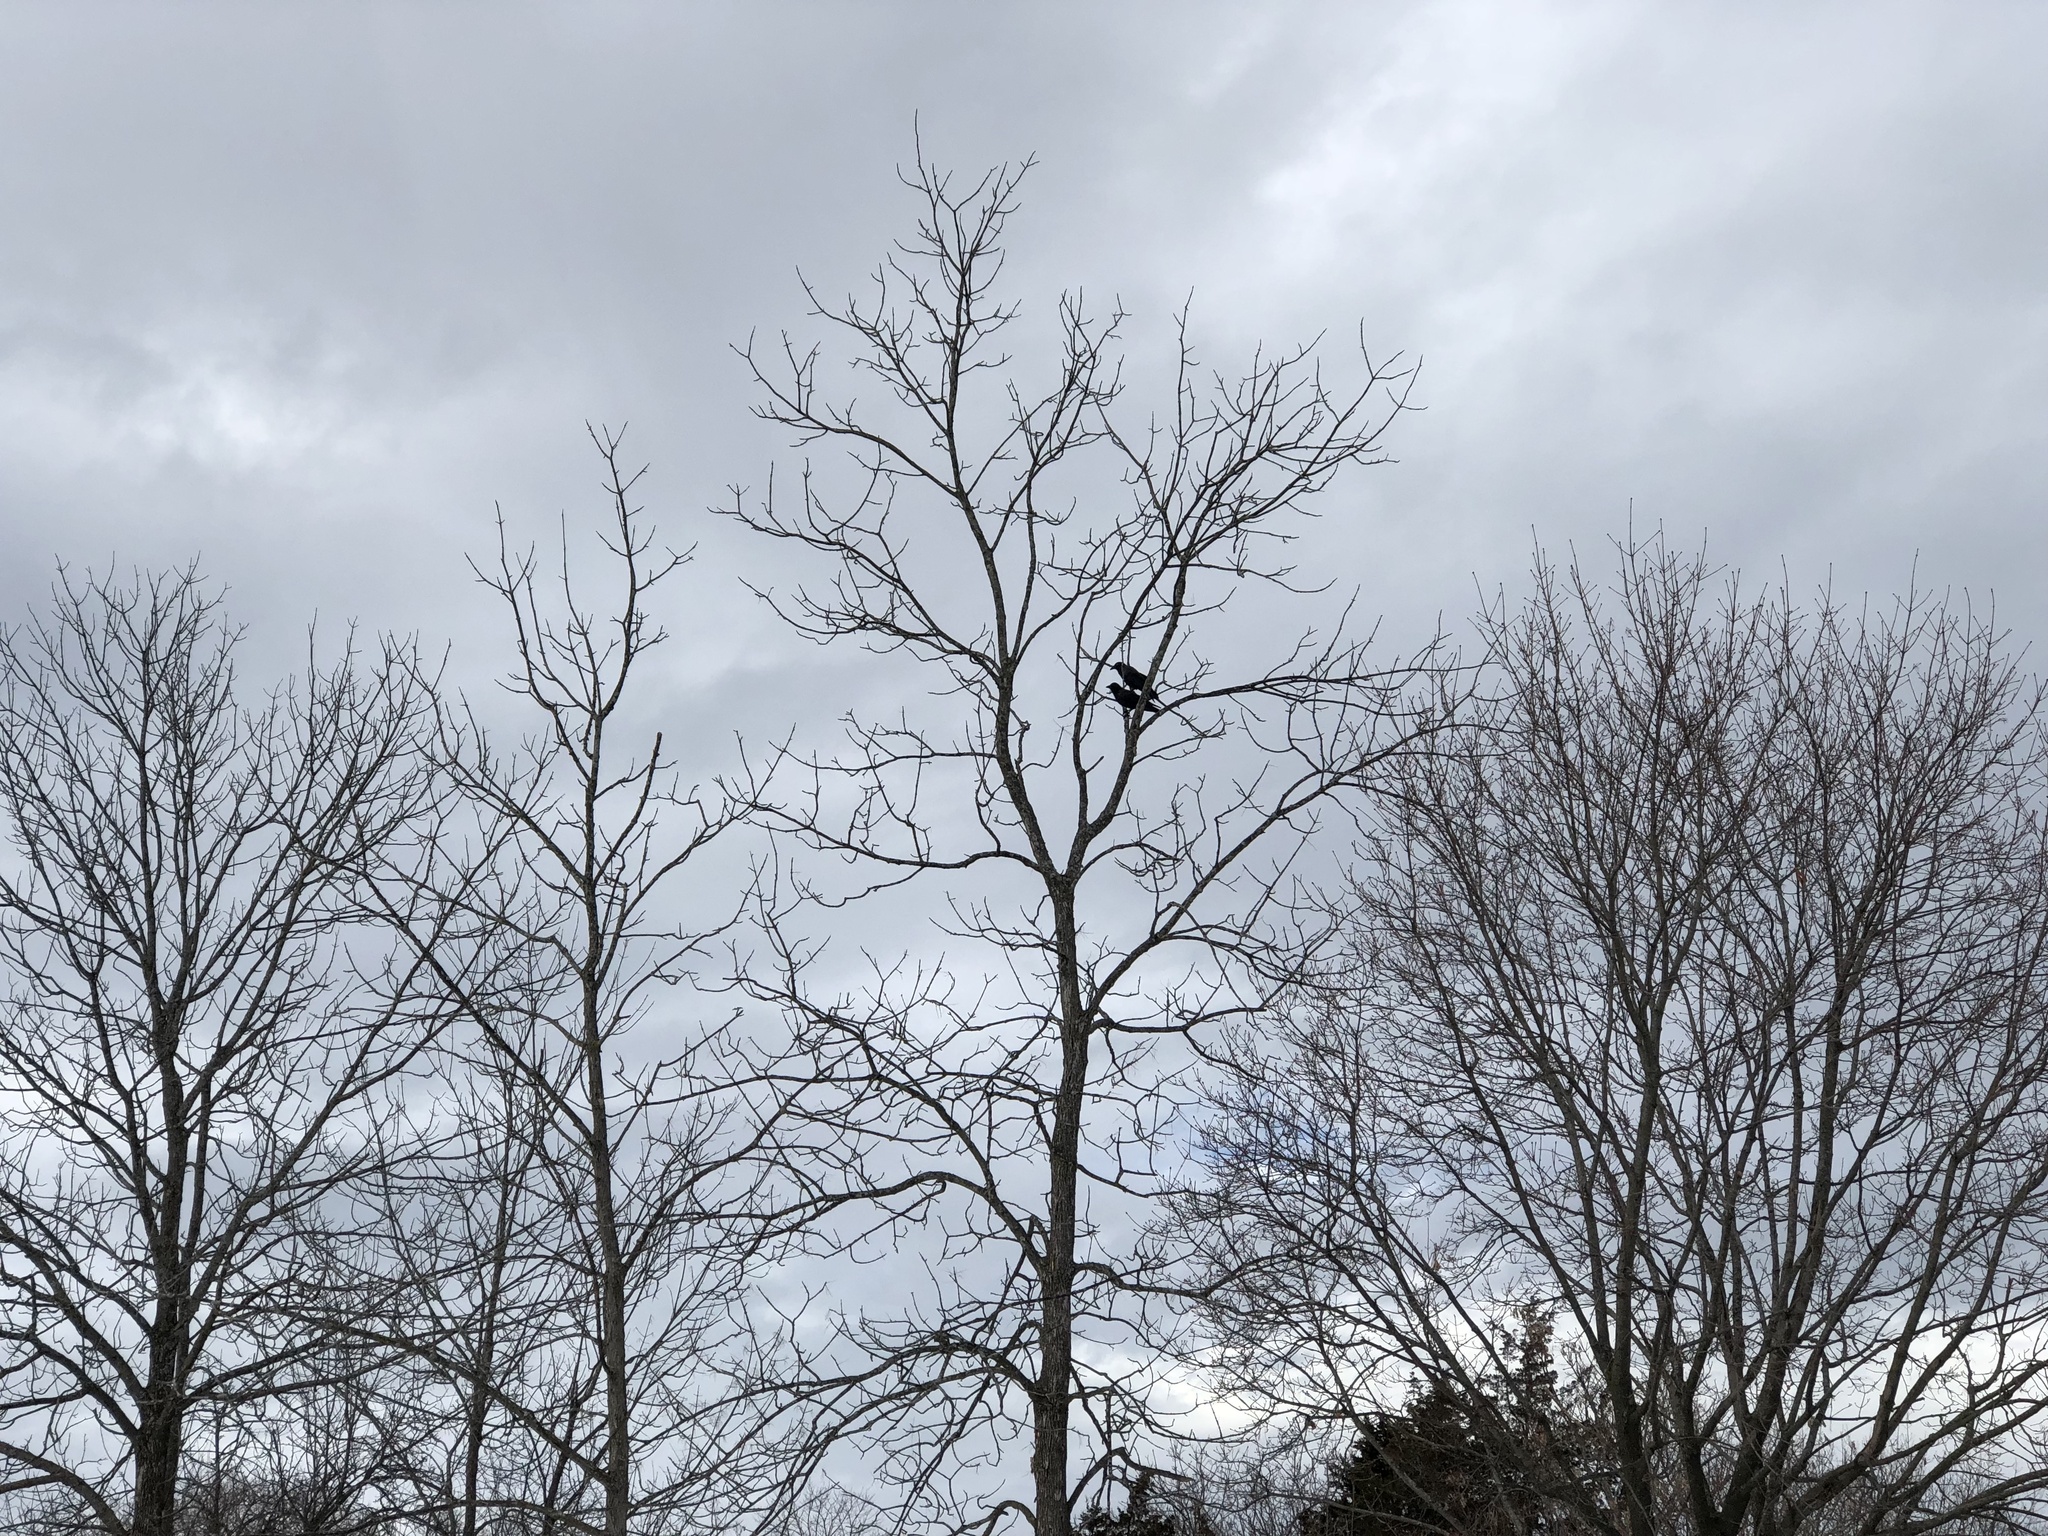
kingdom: Animalia
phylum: Chordata
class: Aves
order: Passeriformes
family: Corvidae
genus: Corvus
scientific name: Corvus brachyrhynchos
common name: American crow
